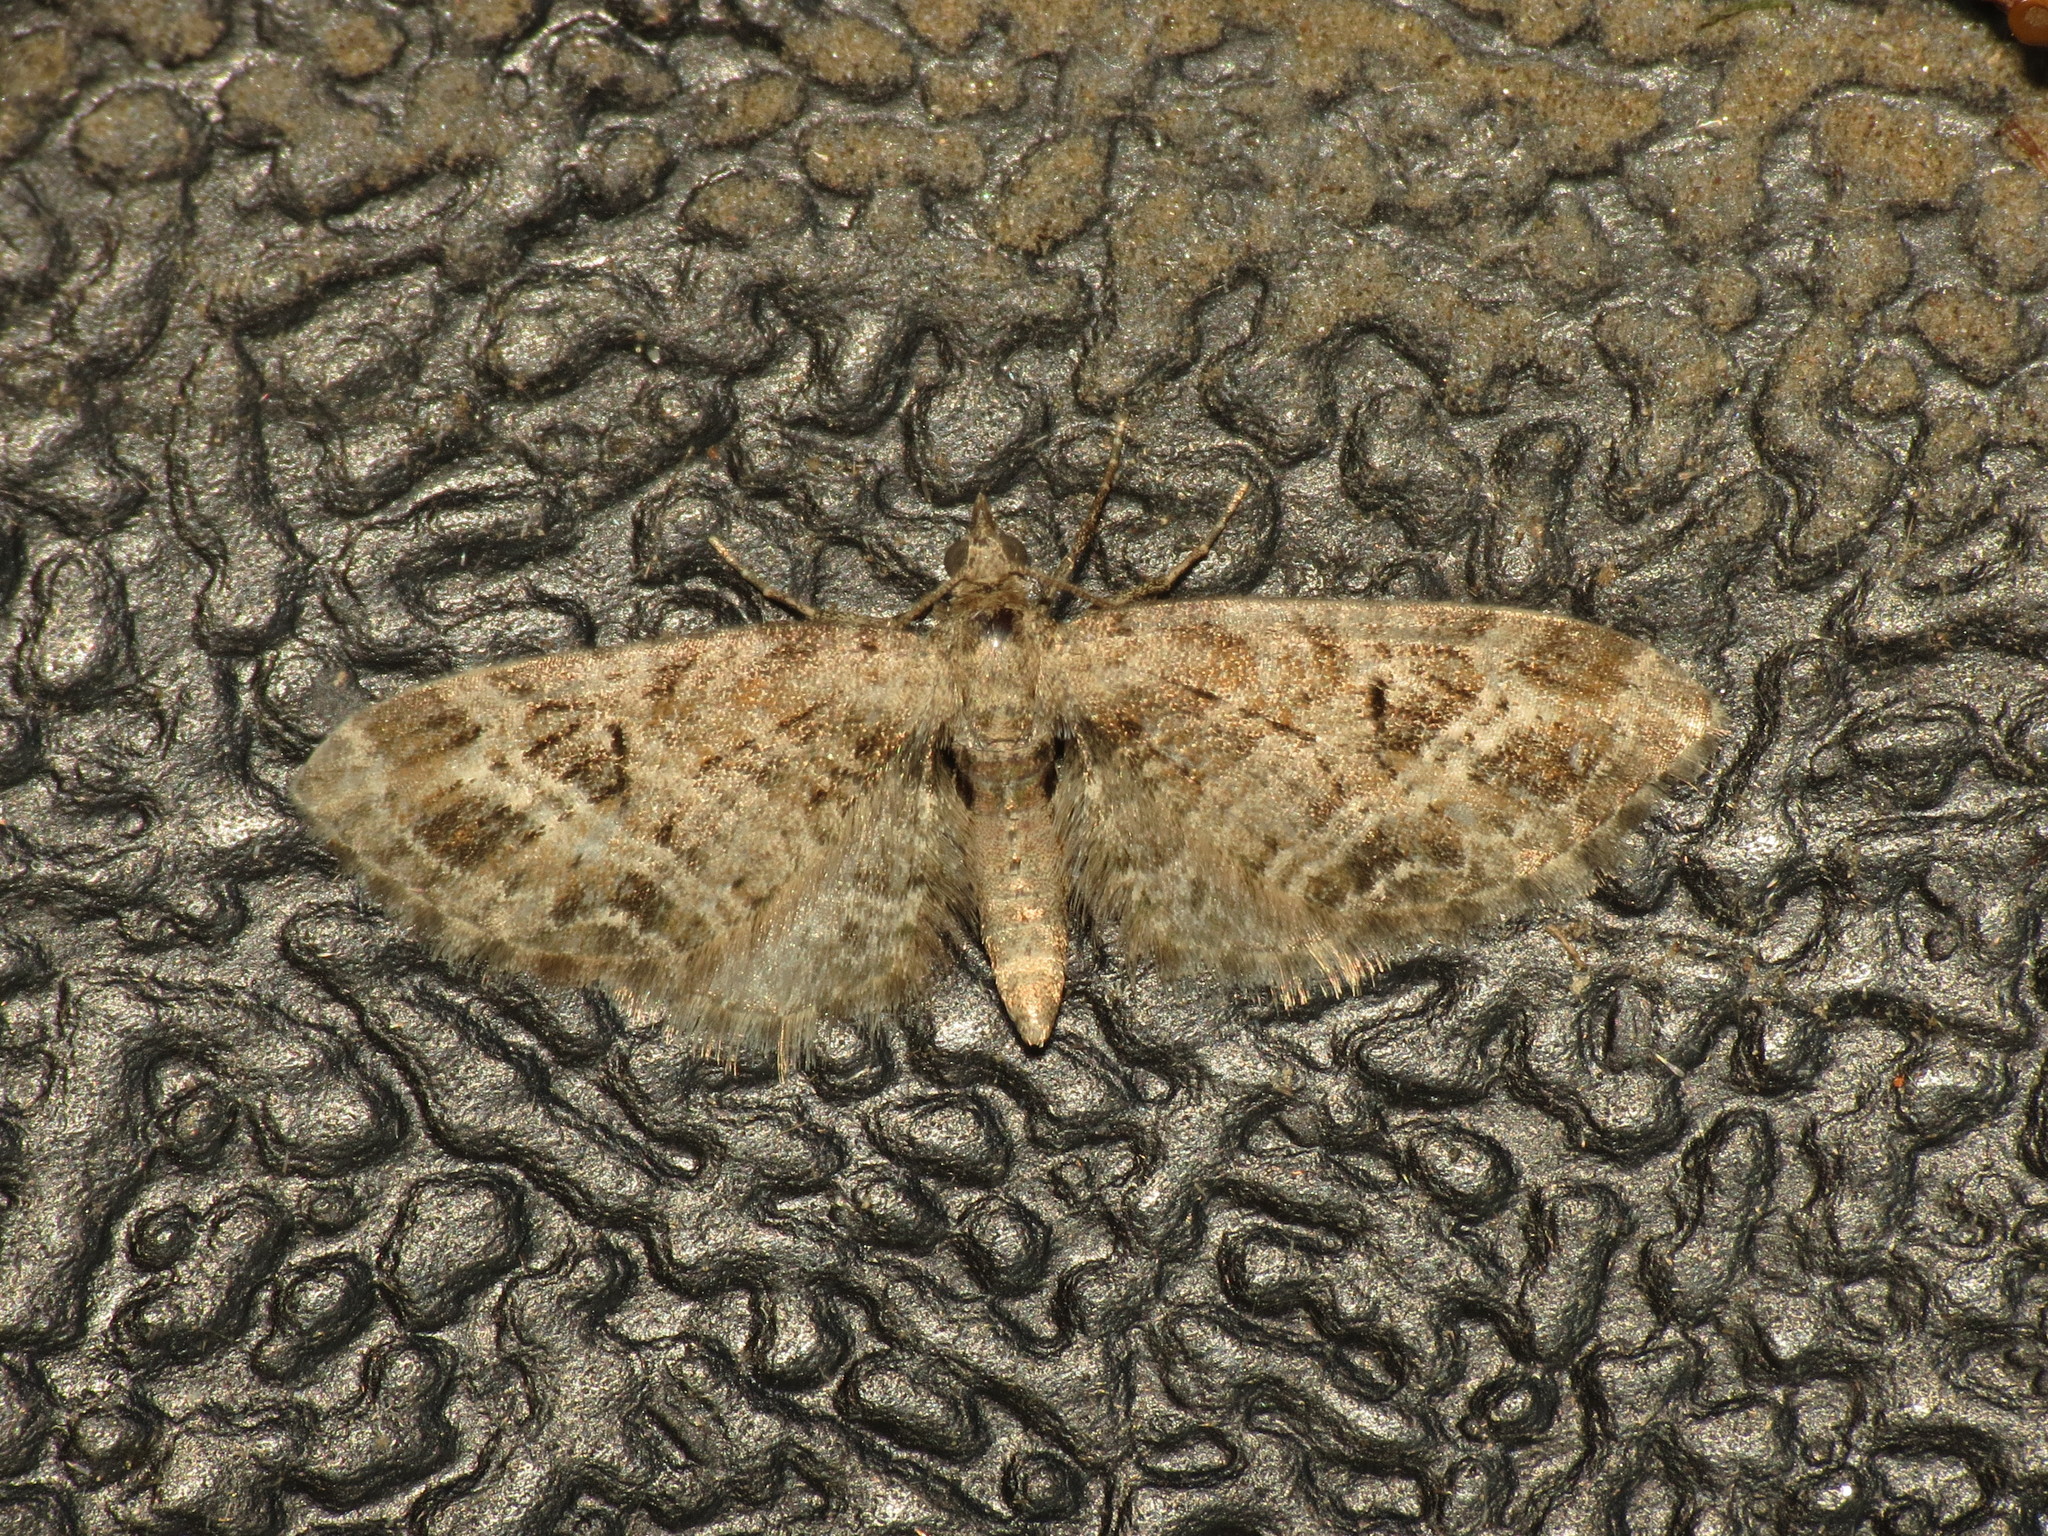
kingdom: Animalia
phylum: Arthropoda
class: Insecta
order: Lepidoptera
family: Geometridae
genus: Eupithecia
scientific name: Eupithecia exiguata
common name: Mottled pug
